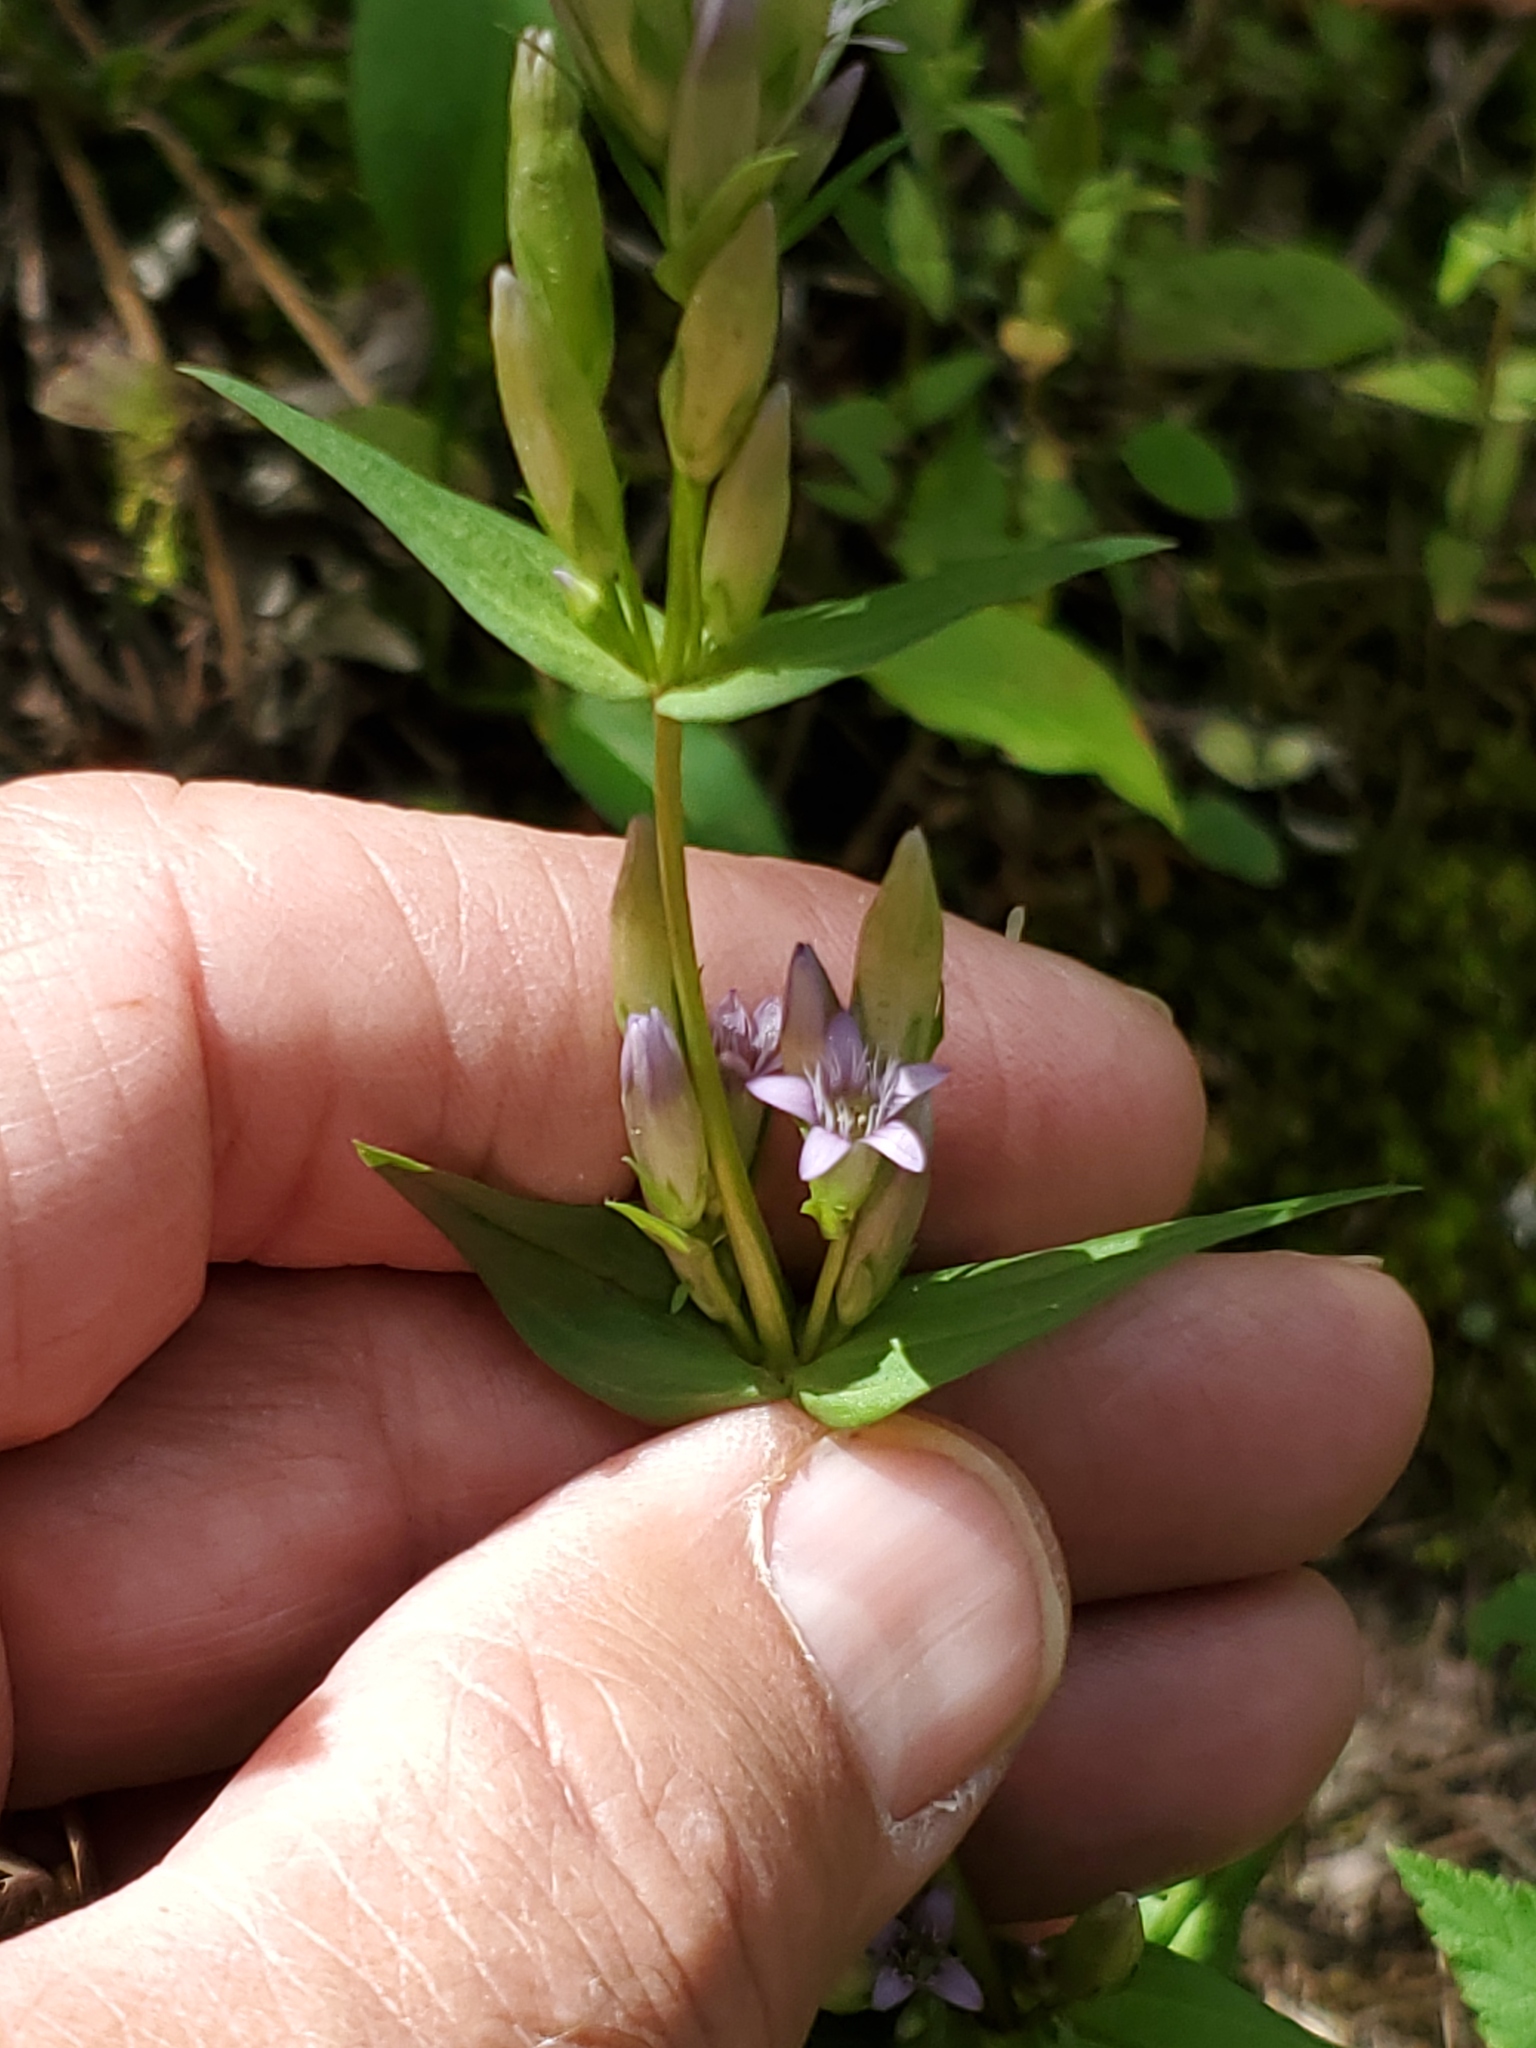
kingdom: Plantae
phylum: Tracheophyta
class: Magnoliopsida
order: Gentianales
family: Gentianaceae
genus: Gentianella
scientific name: Gentianella amarella
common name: Autumn gentian
